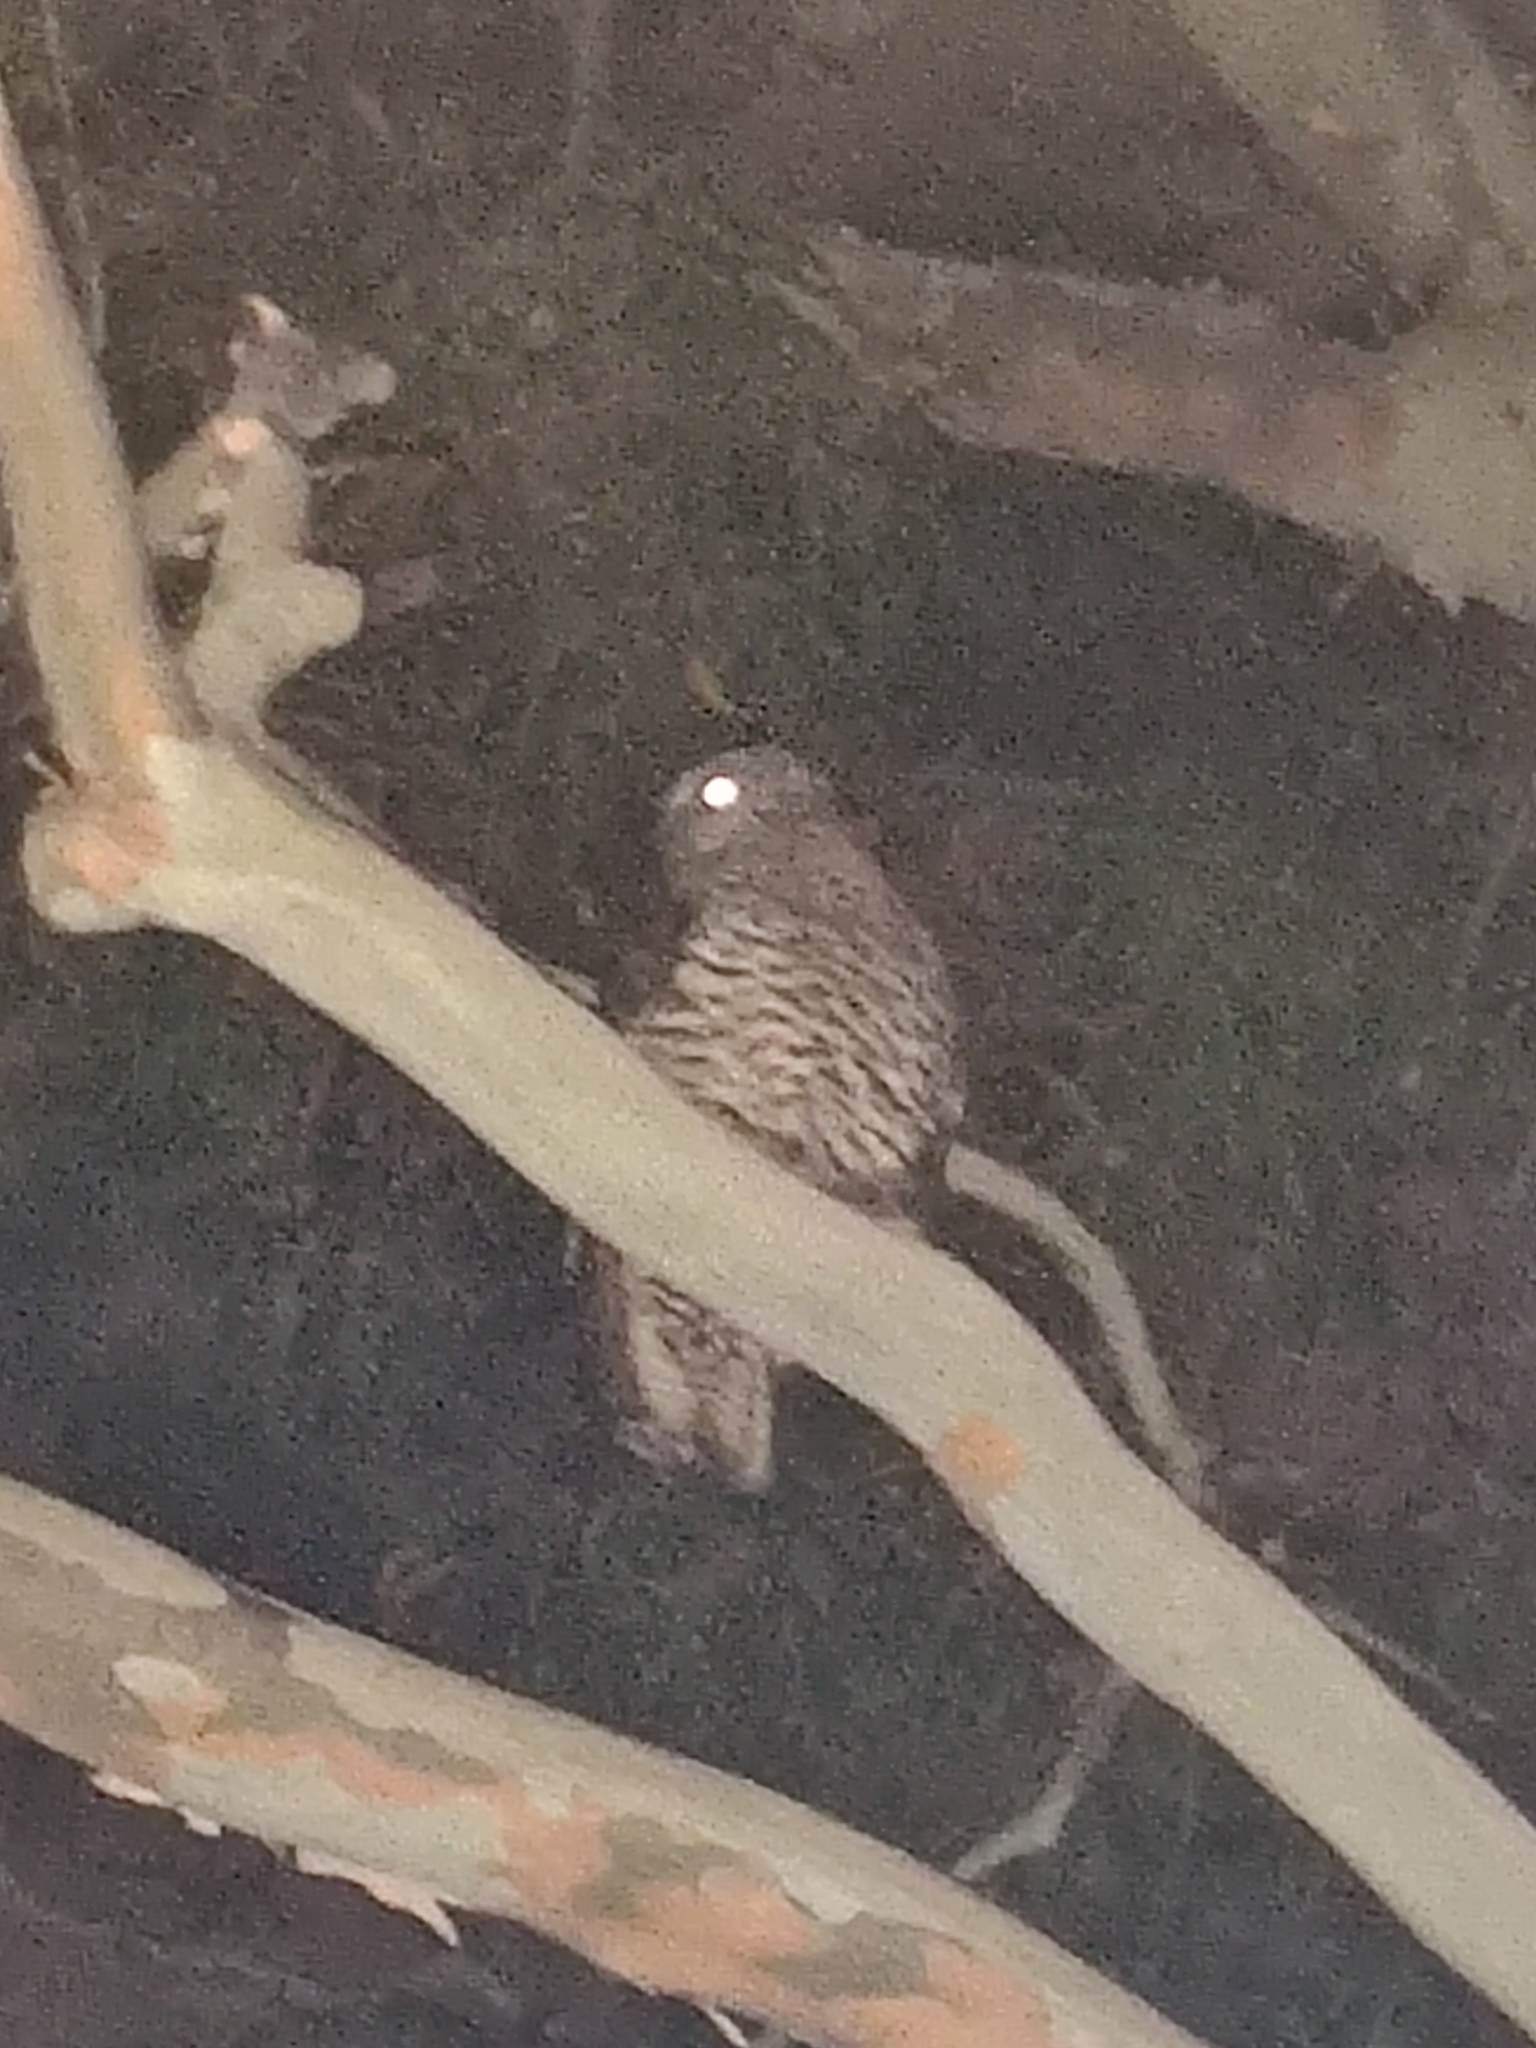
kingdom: Animalia
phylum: Chordata
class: Aves
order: Strigiformes
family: Strigidae
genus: Ninox
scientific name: Ninox strenua
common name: Powerful owl
